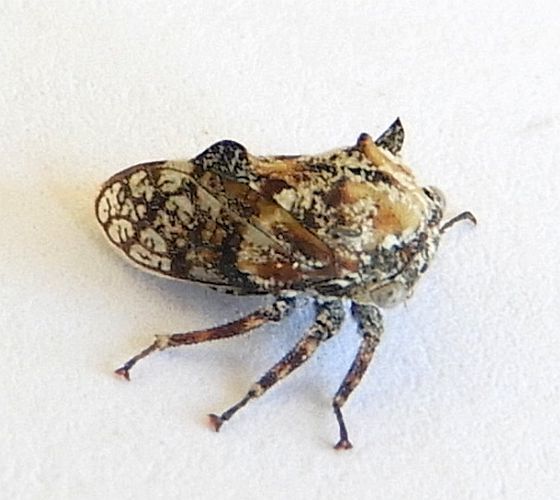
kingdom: Animalia
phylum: Arthropoda
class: Insecta
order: Hemiptera
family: Membracidae
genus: Tylocentrus
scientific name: Tylocentrus quadricornis
